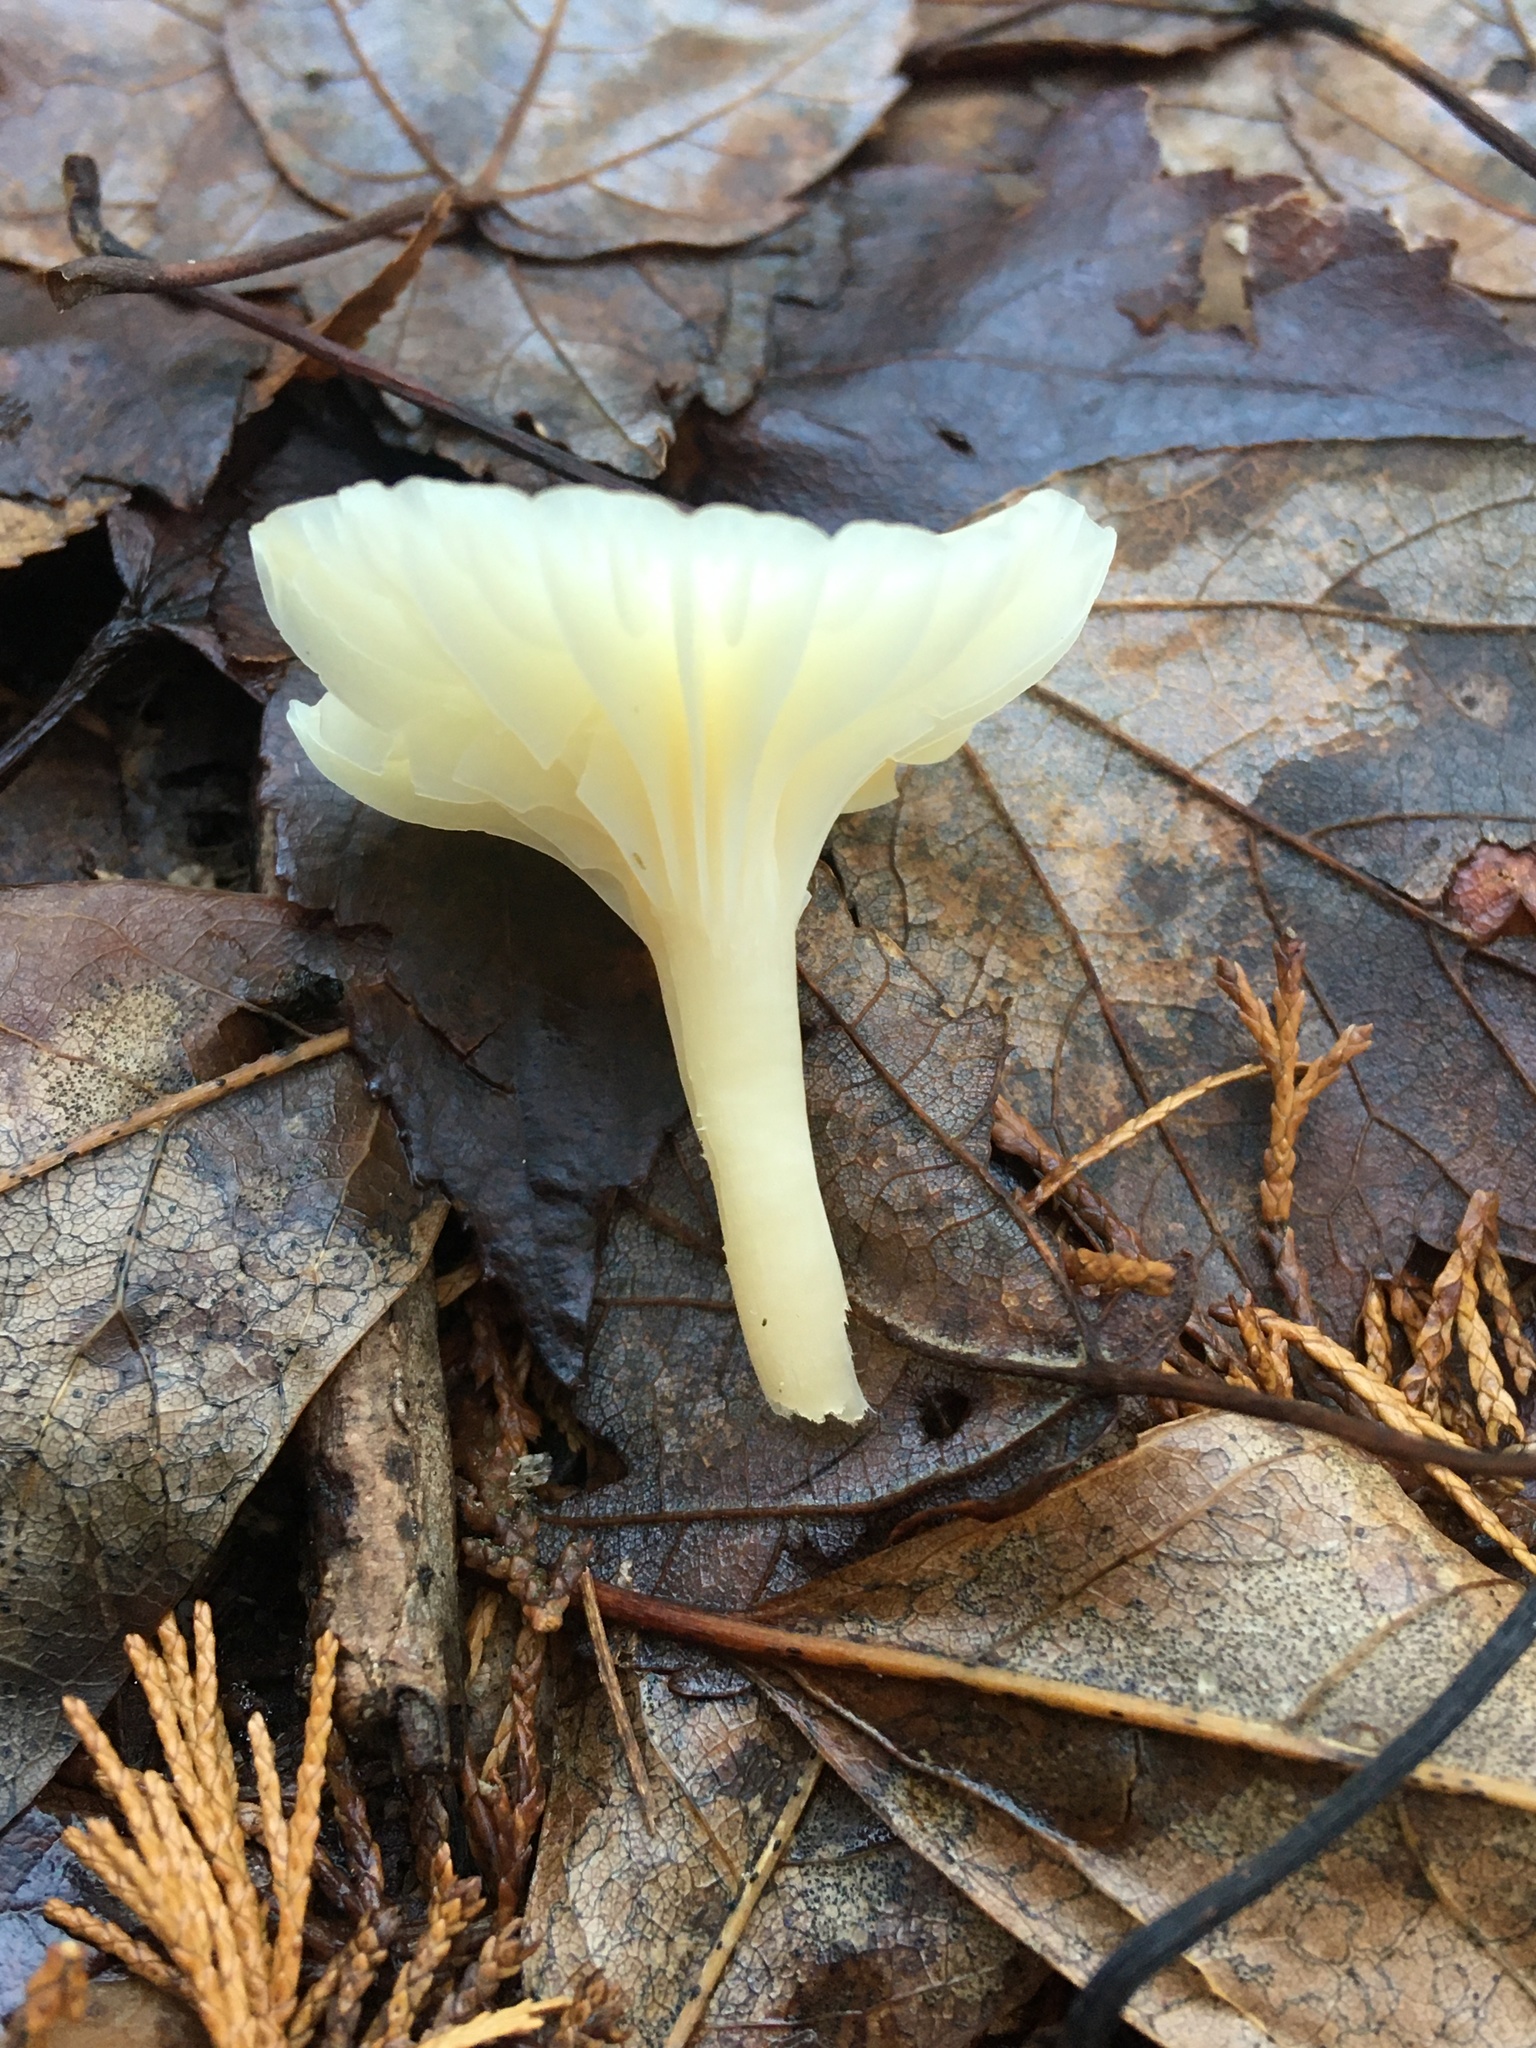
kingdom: Fungi
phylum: Basidiomycota
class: Agaricomycetes
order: Agaricales
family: Hygrophoraceae
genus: Cuphophyllus
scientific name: Cuphophyllus virgineus
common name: Snowy waxcap
